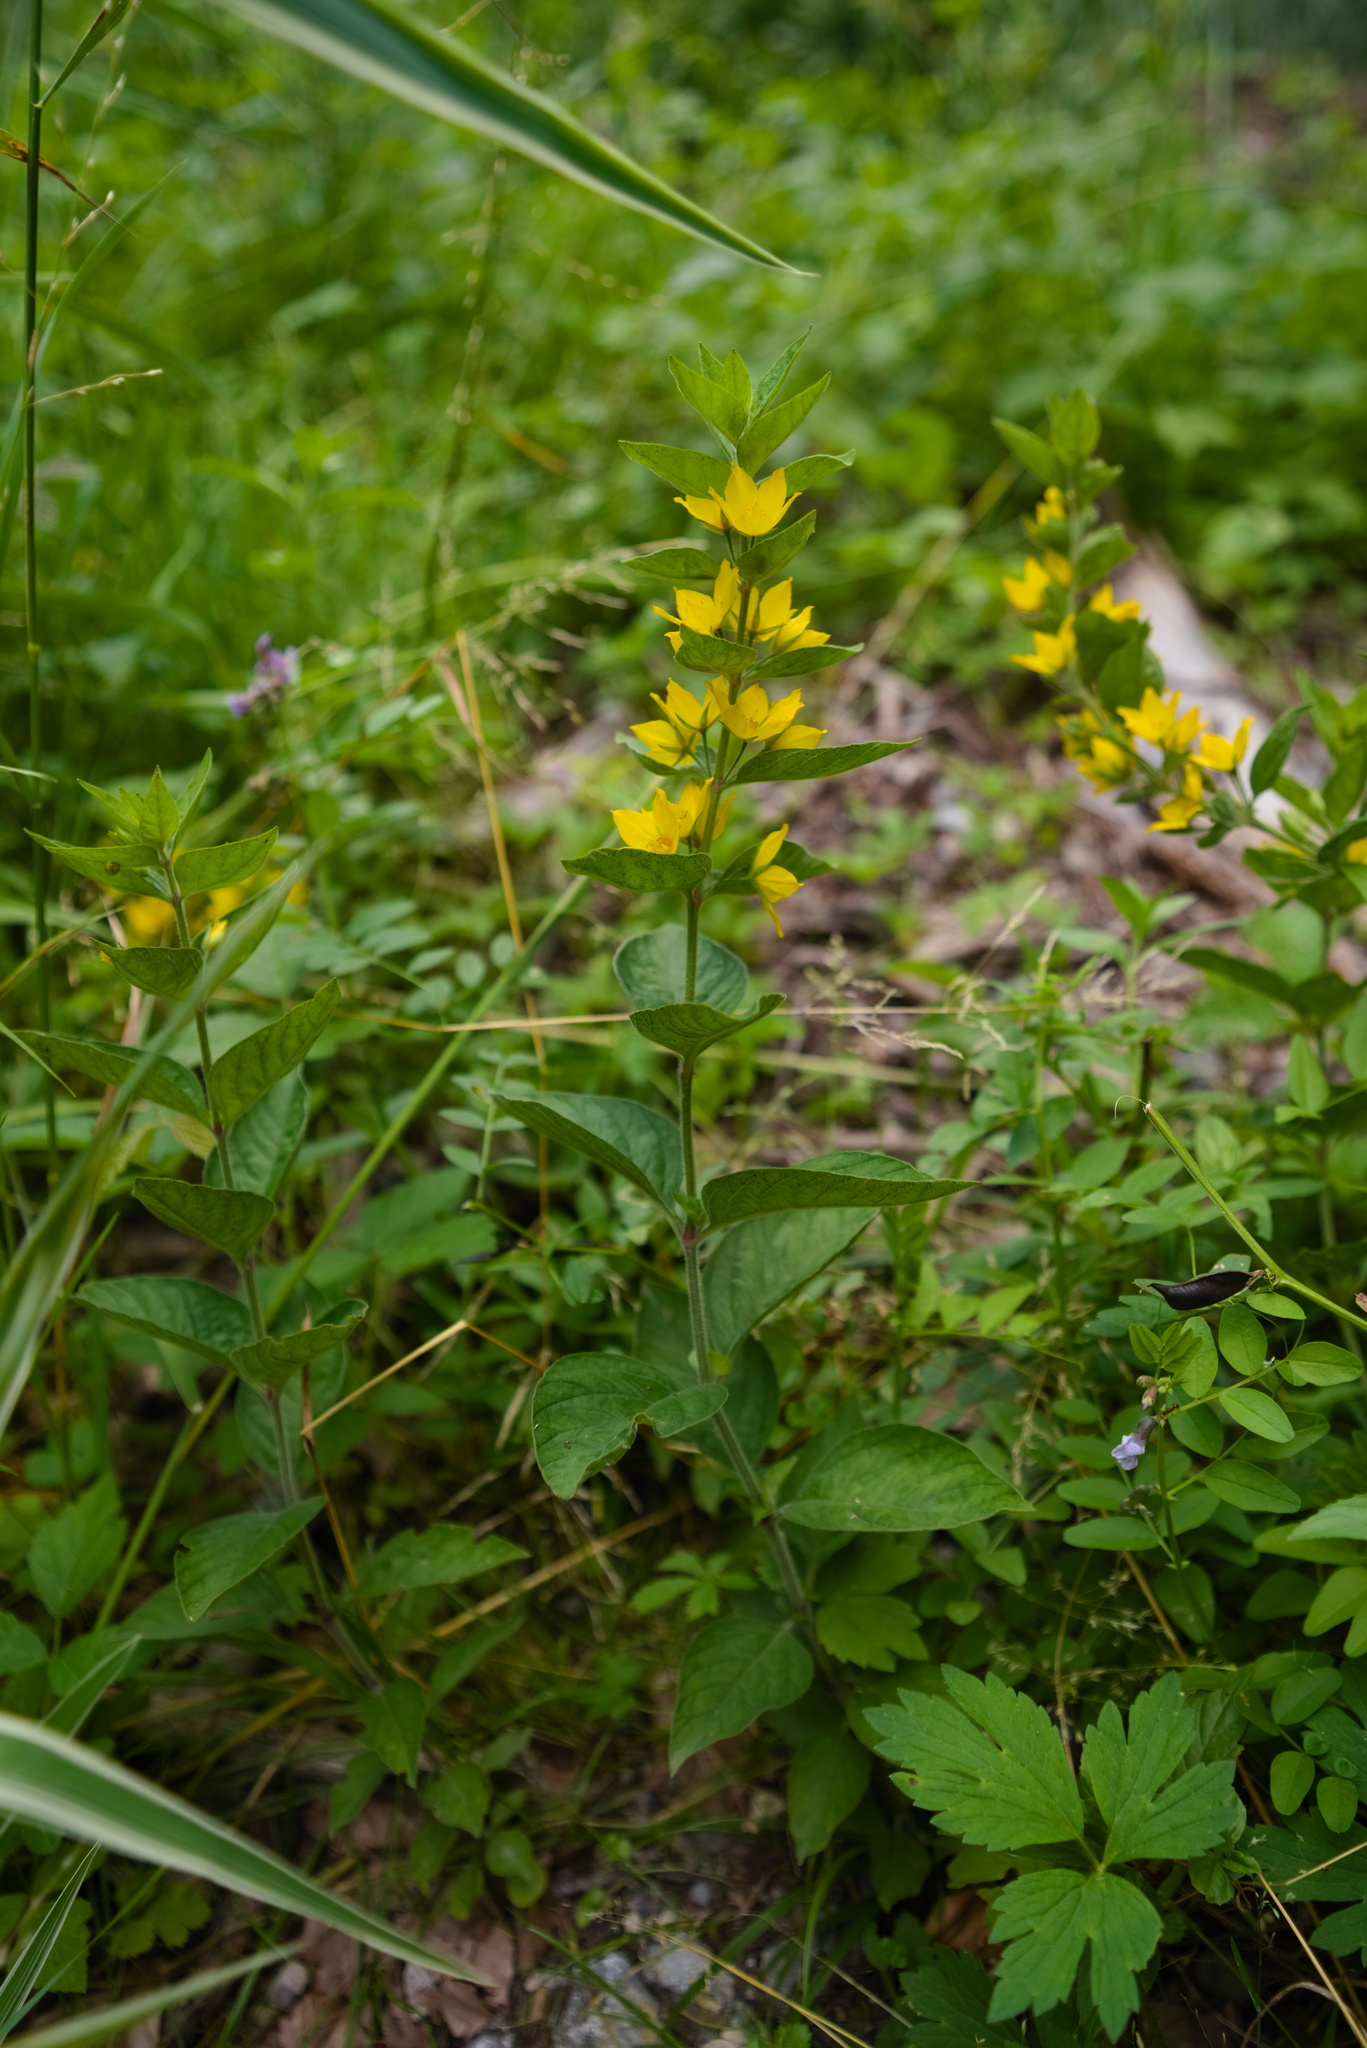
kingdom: Plantae
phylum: Tracheophyta
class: Magnoliopsida
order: Ericales
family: Primulaceae
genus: Lysimachia
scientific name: Lysimachia punctata
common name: Dotted loosestrife
